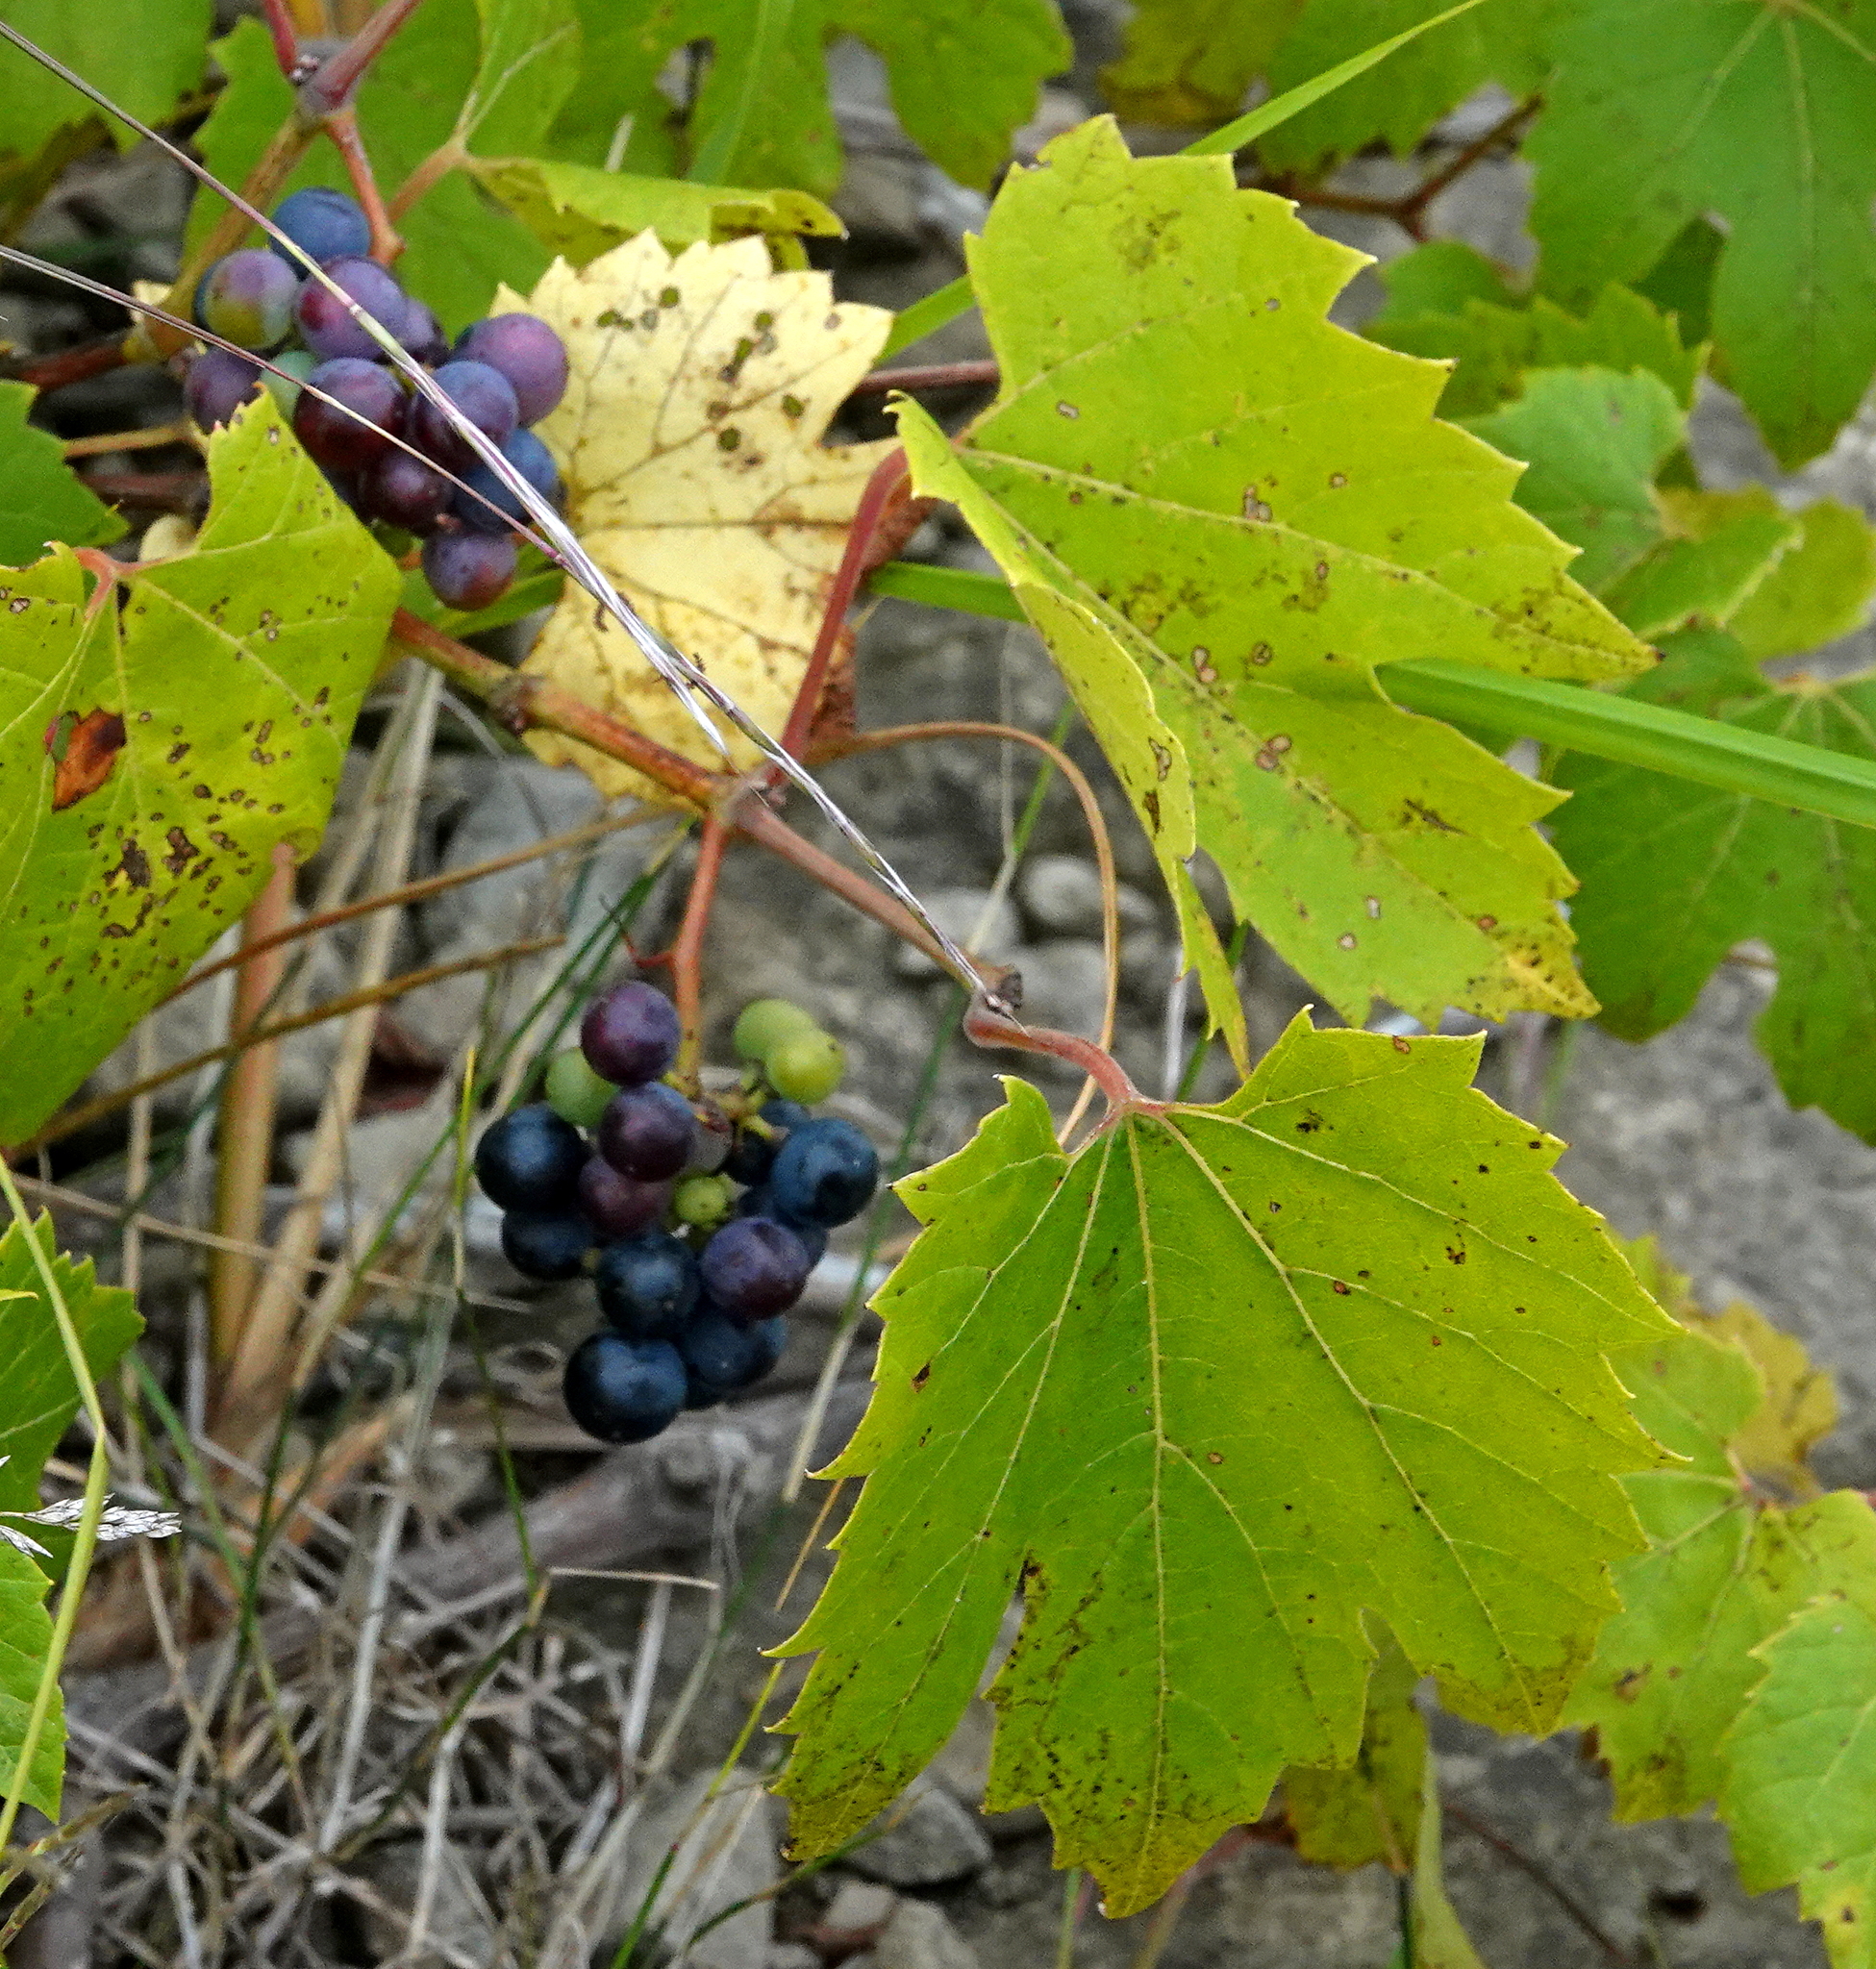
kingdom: Plantae
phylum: Tracheophyta
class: Magnoliopsida
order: Vitales
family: Vitaceae
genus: Vitis
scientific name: Vitis riparia
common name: Frost grape
